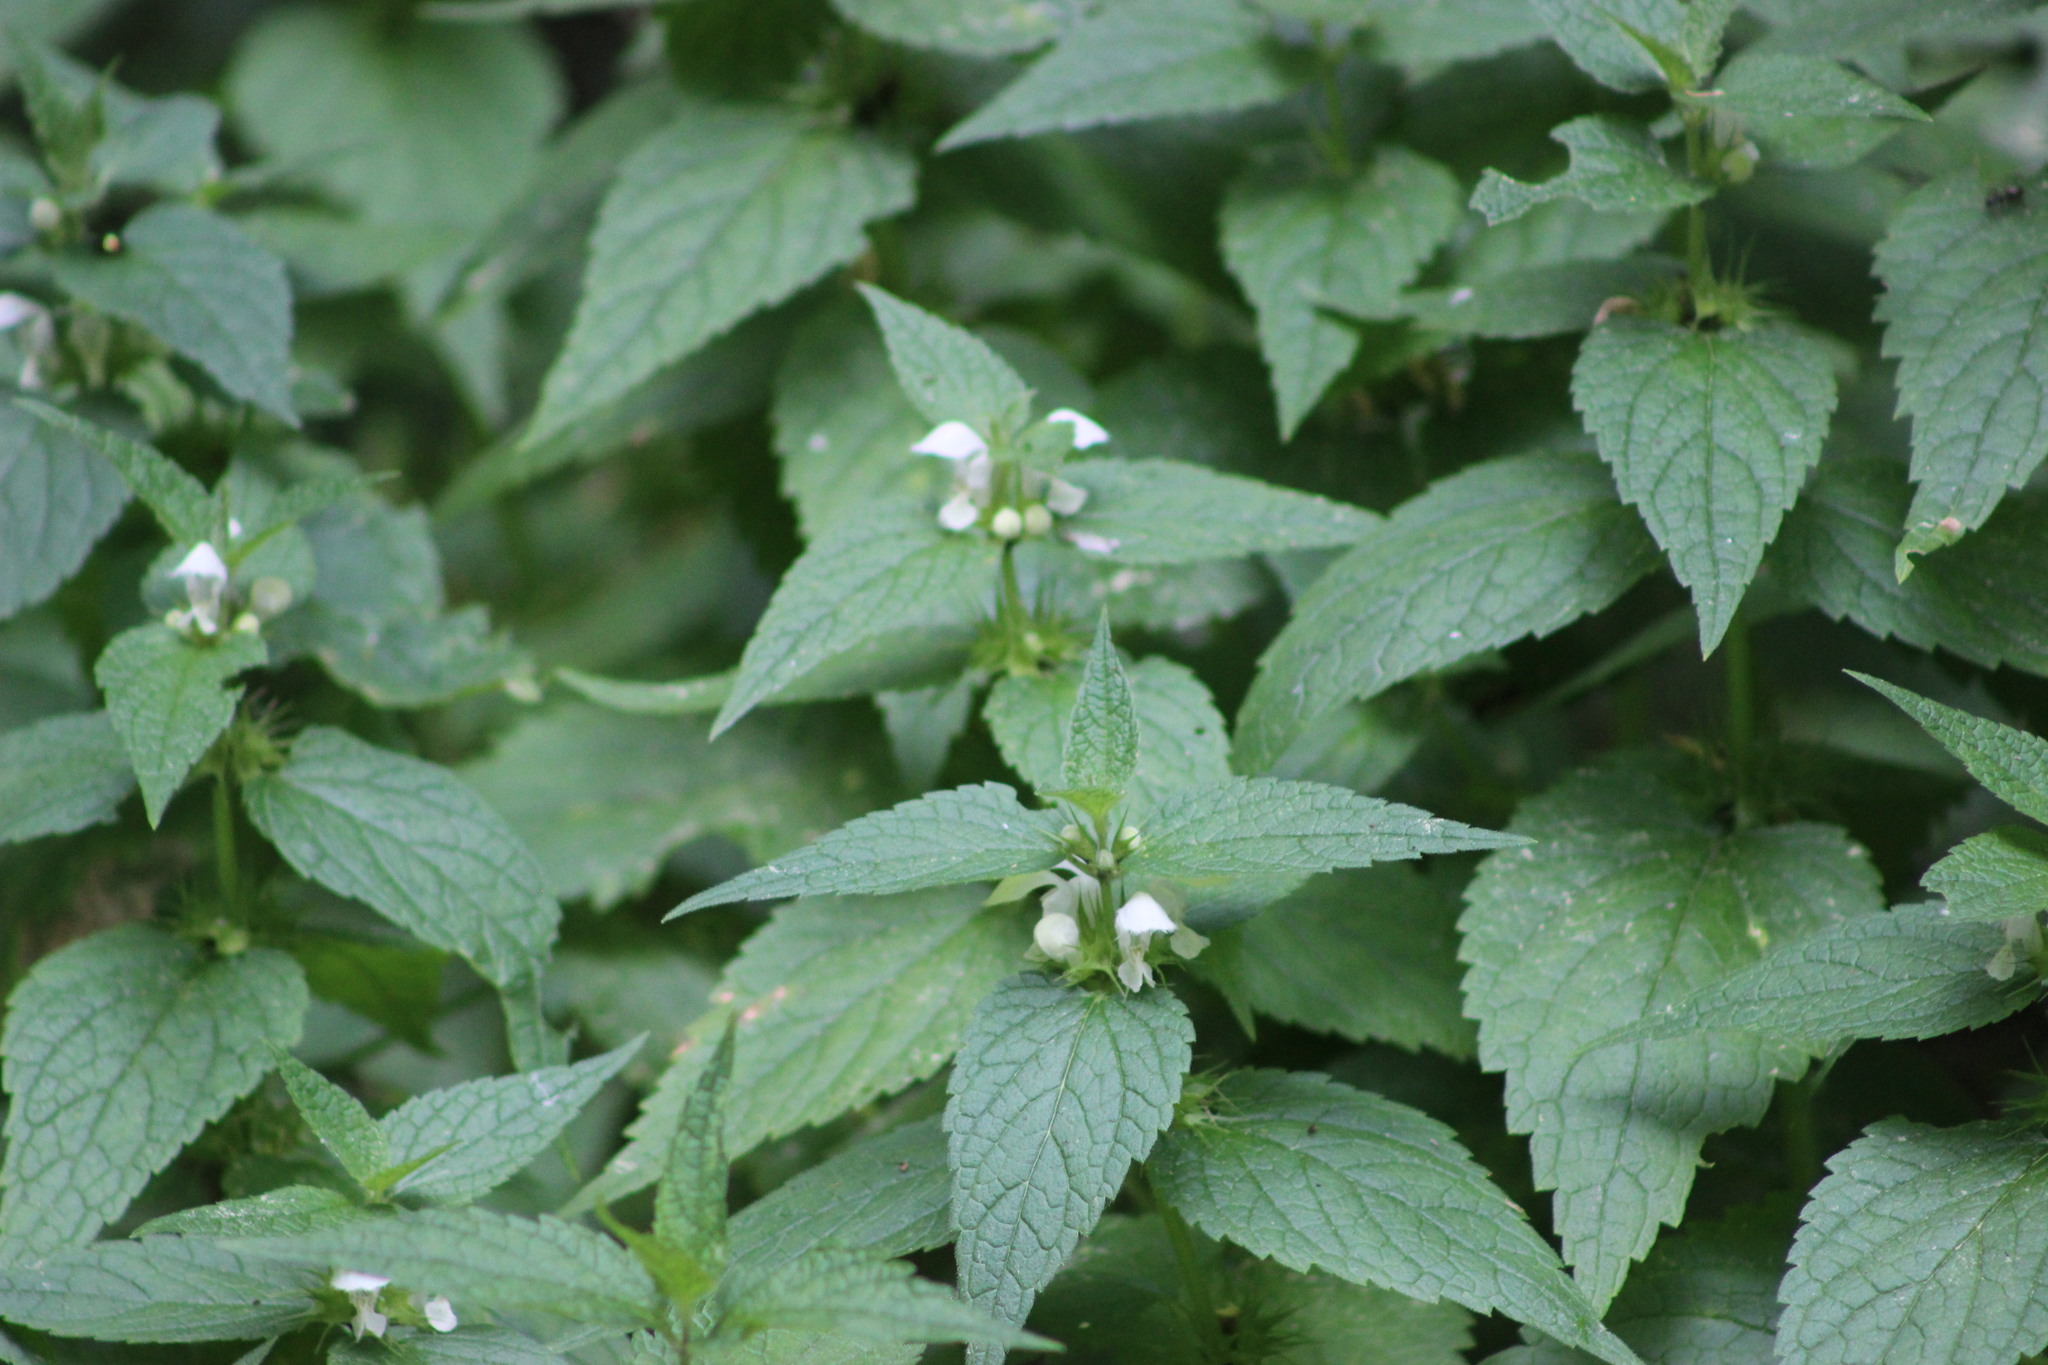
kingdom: Plantae
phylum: Tracheophyta
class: Magnoliopsida
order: Lamiales
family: Lamiaceae
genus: Lamium
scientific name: Lamium album
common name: White dead-nettle
